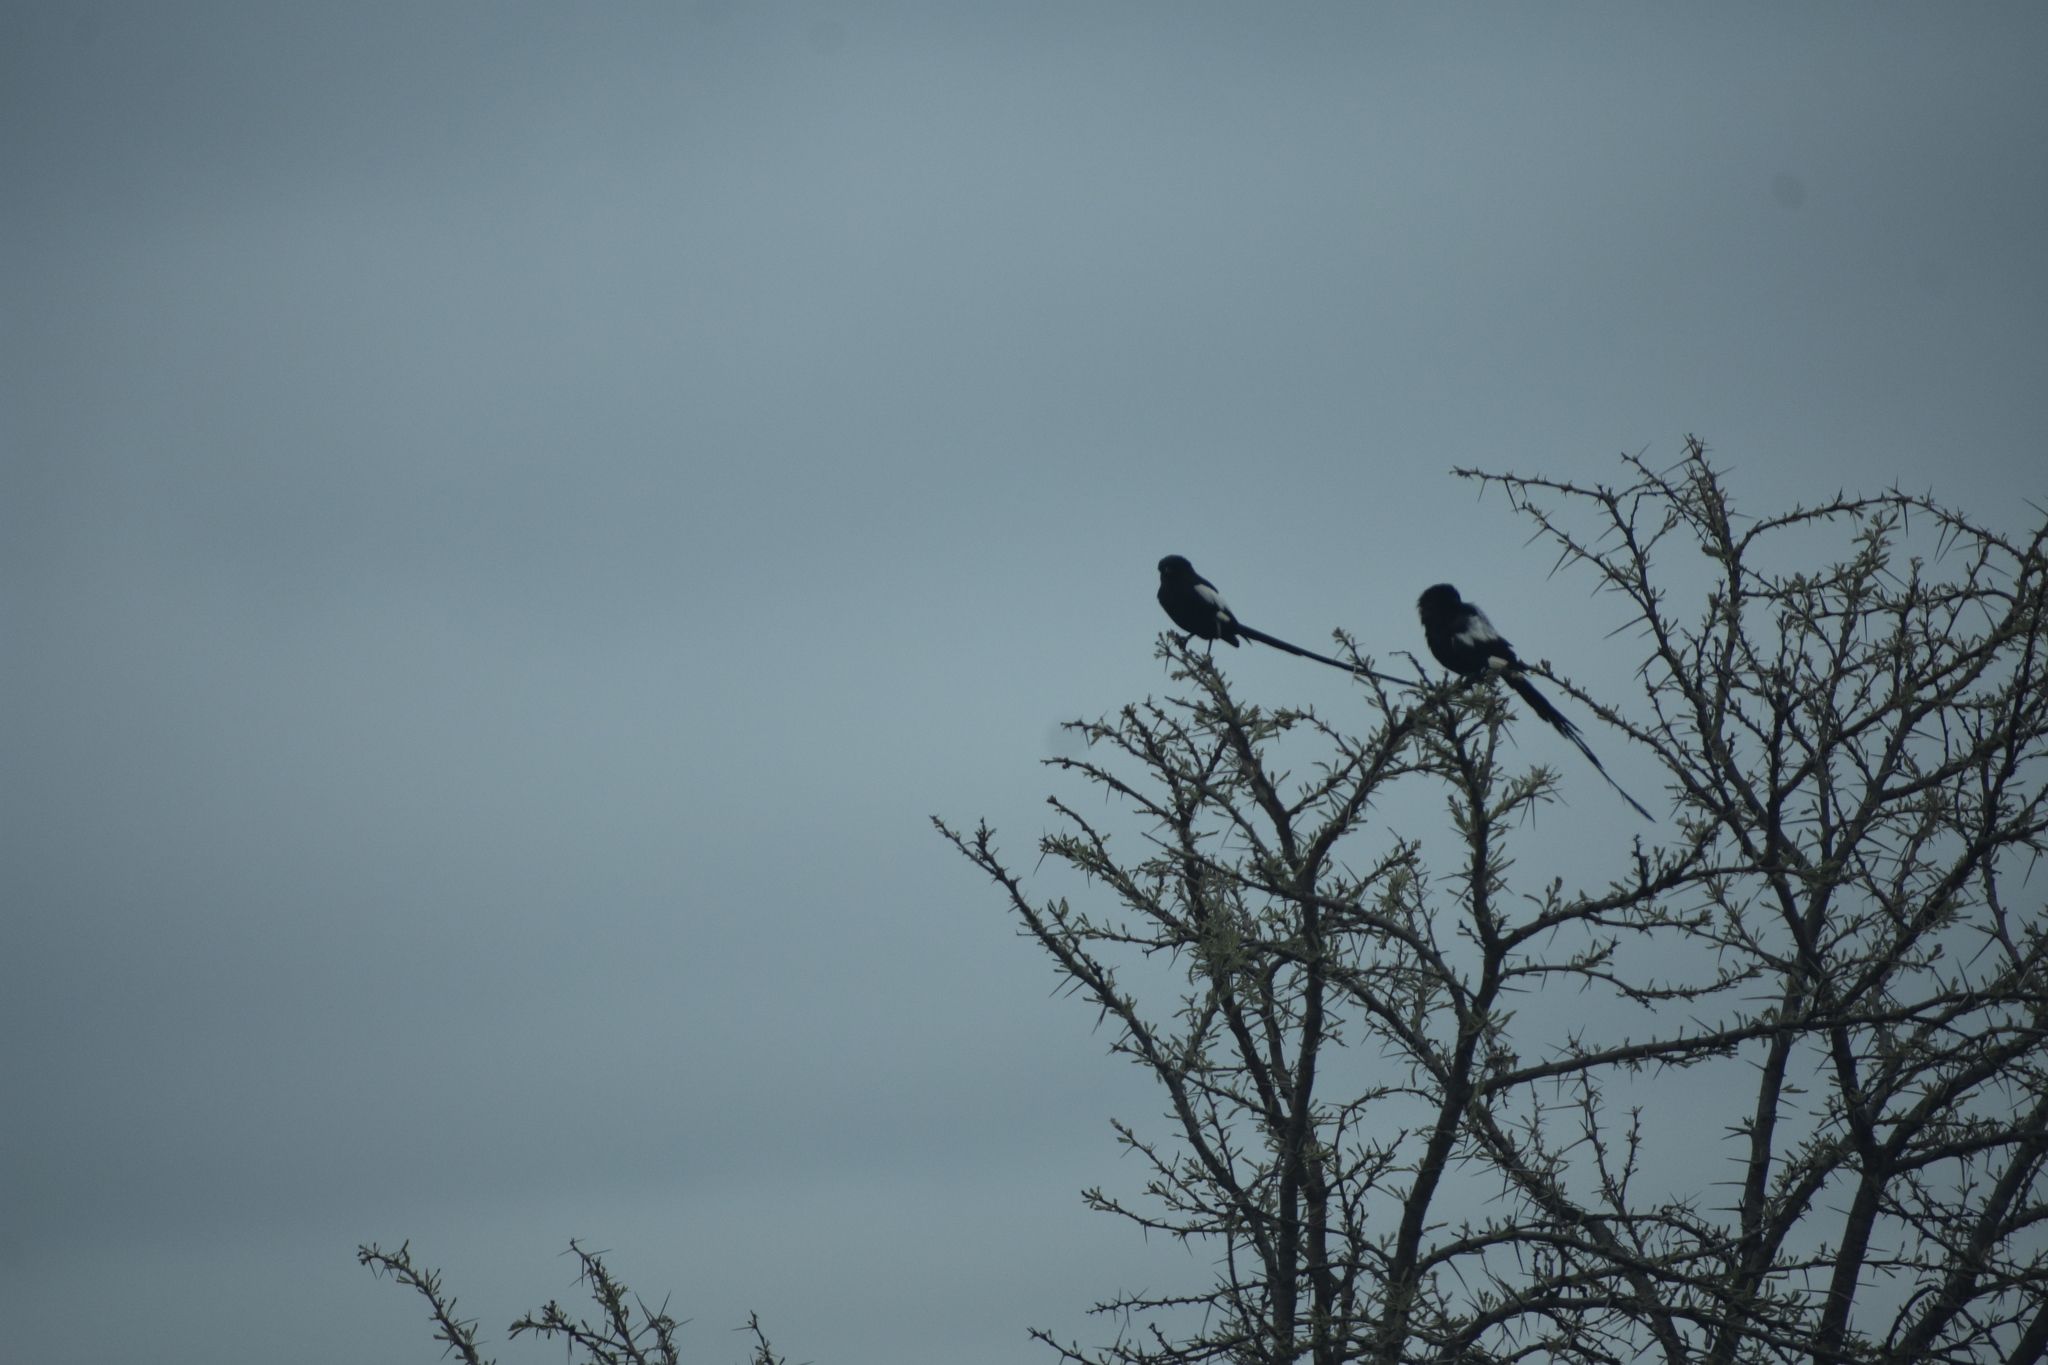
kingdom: Animalia
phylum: Chordata
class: Aves
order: Passeriformes
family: Laniidae
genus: Urolestes
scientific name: Urolestes melanoleucus
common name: Magpie shrike
